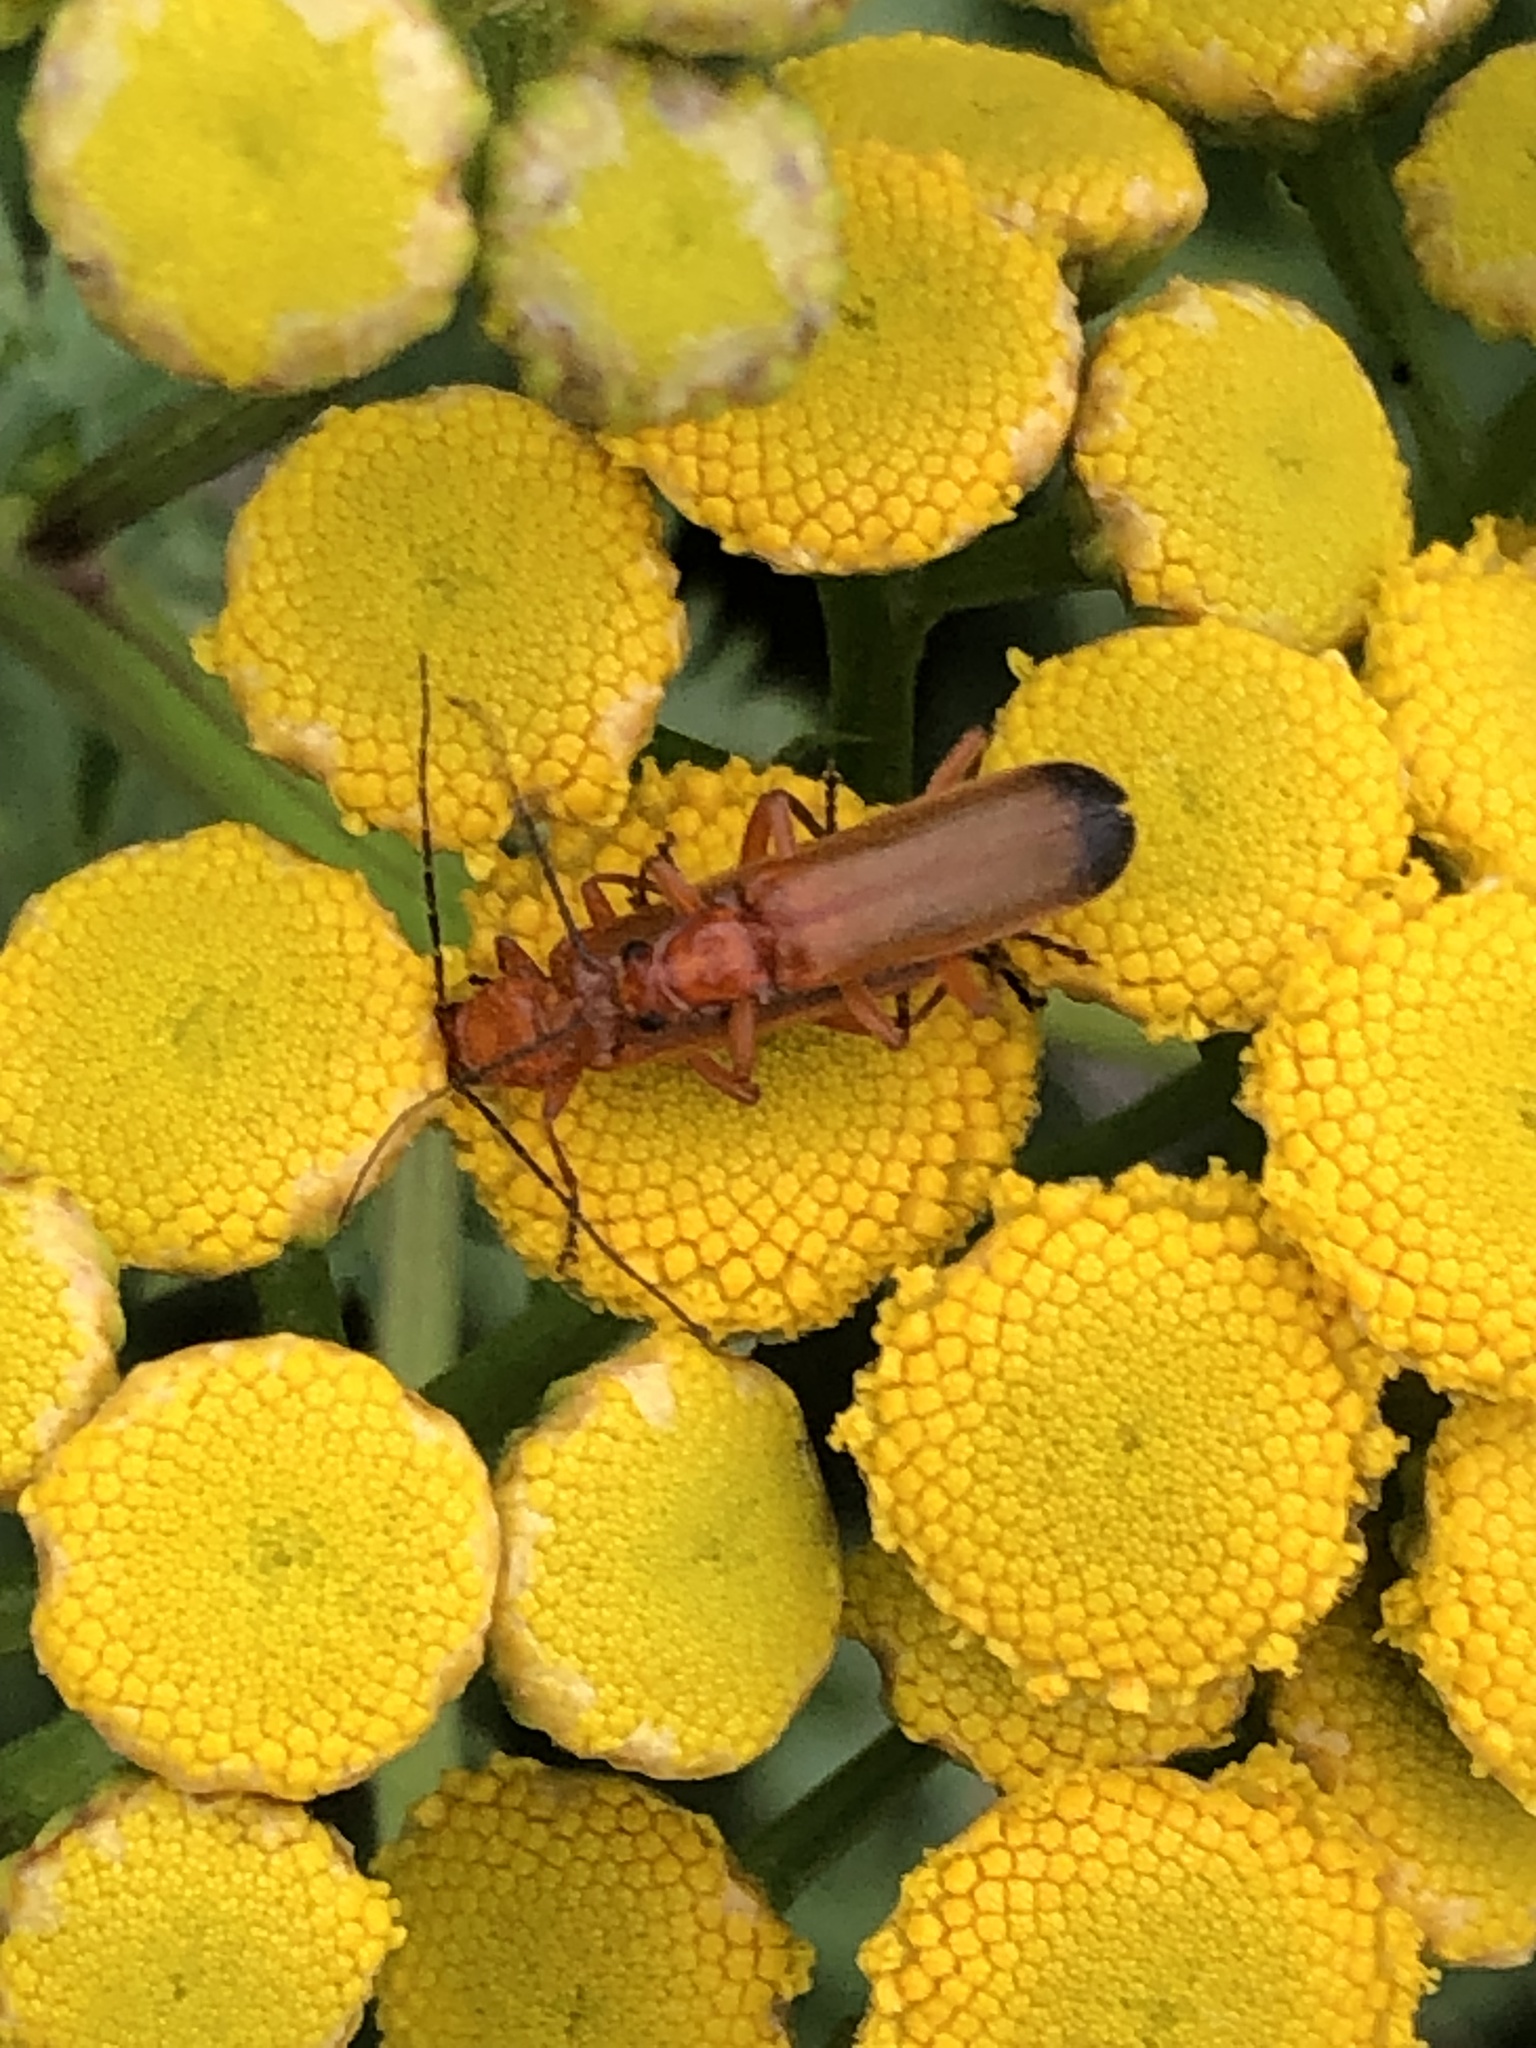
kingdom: Animalia
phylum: Arthropoda
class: Insecta
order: Coleoptera
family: Cantharidae
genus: Rhagonycha
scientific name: Rhagonycha fulva
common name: Common red soldier beetle
